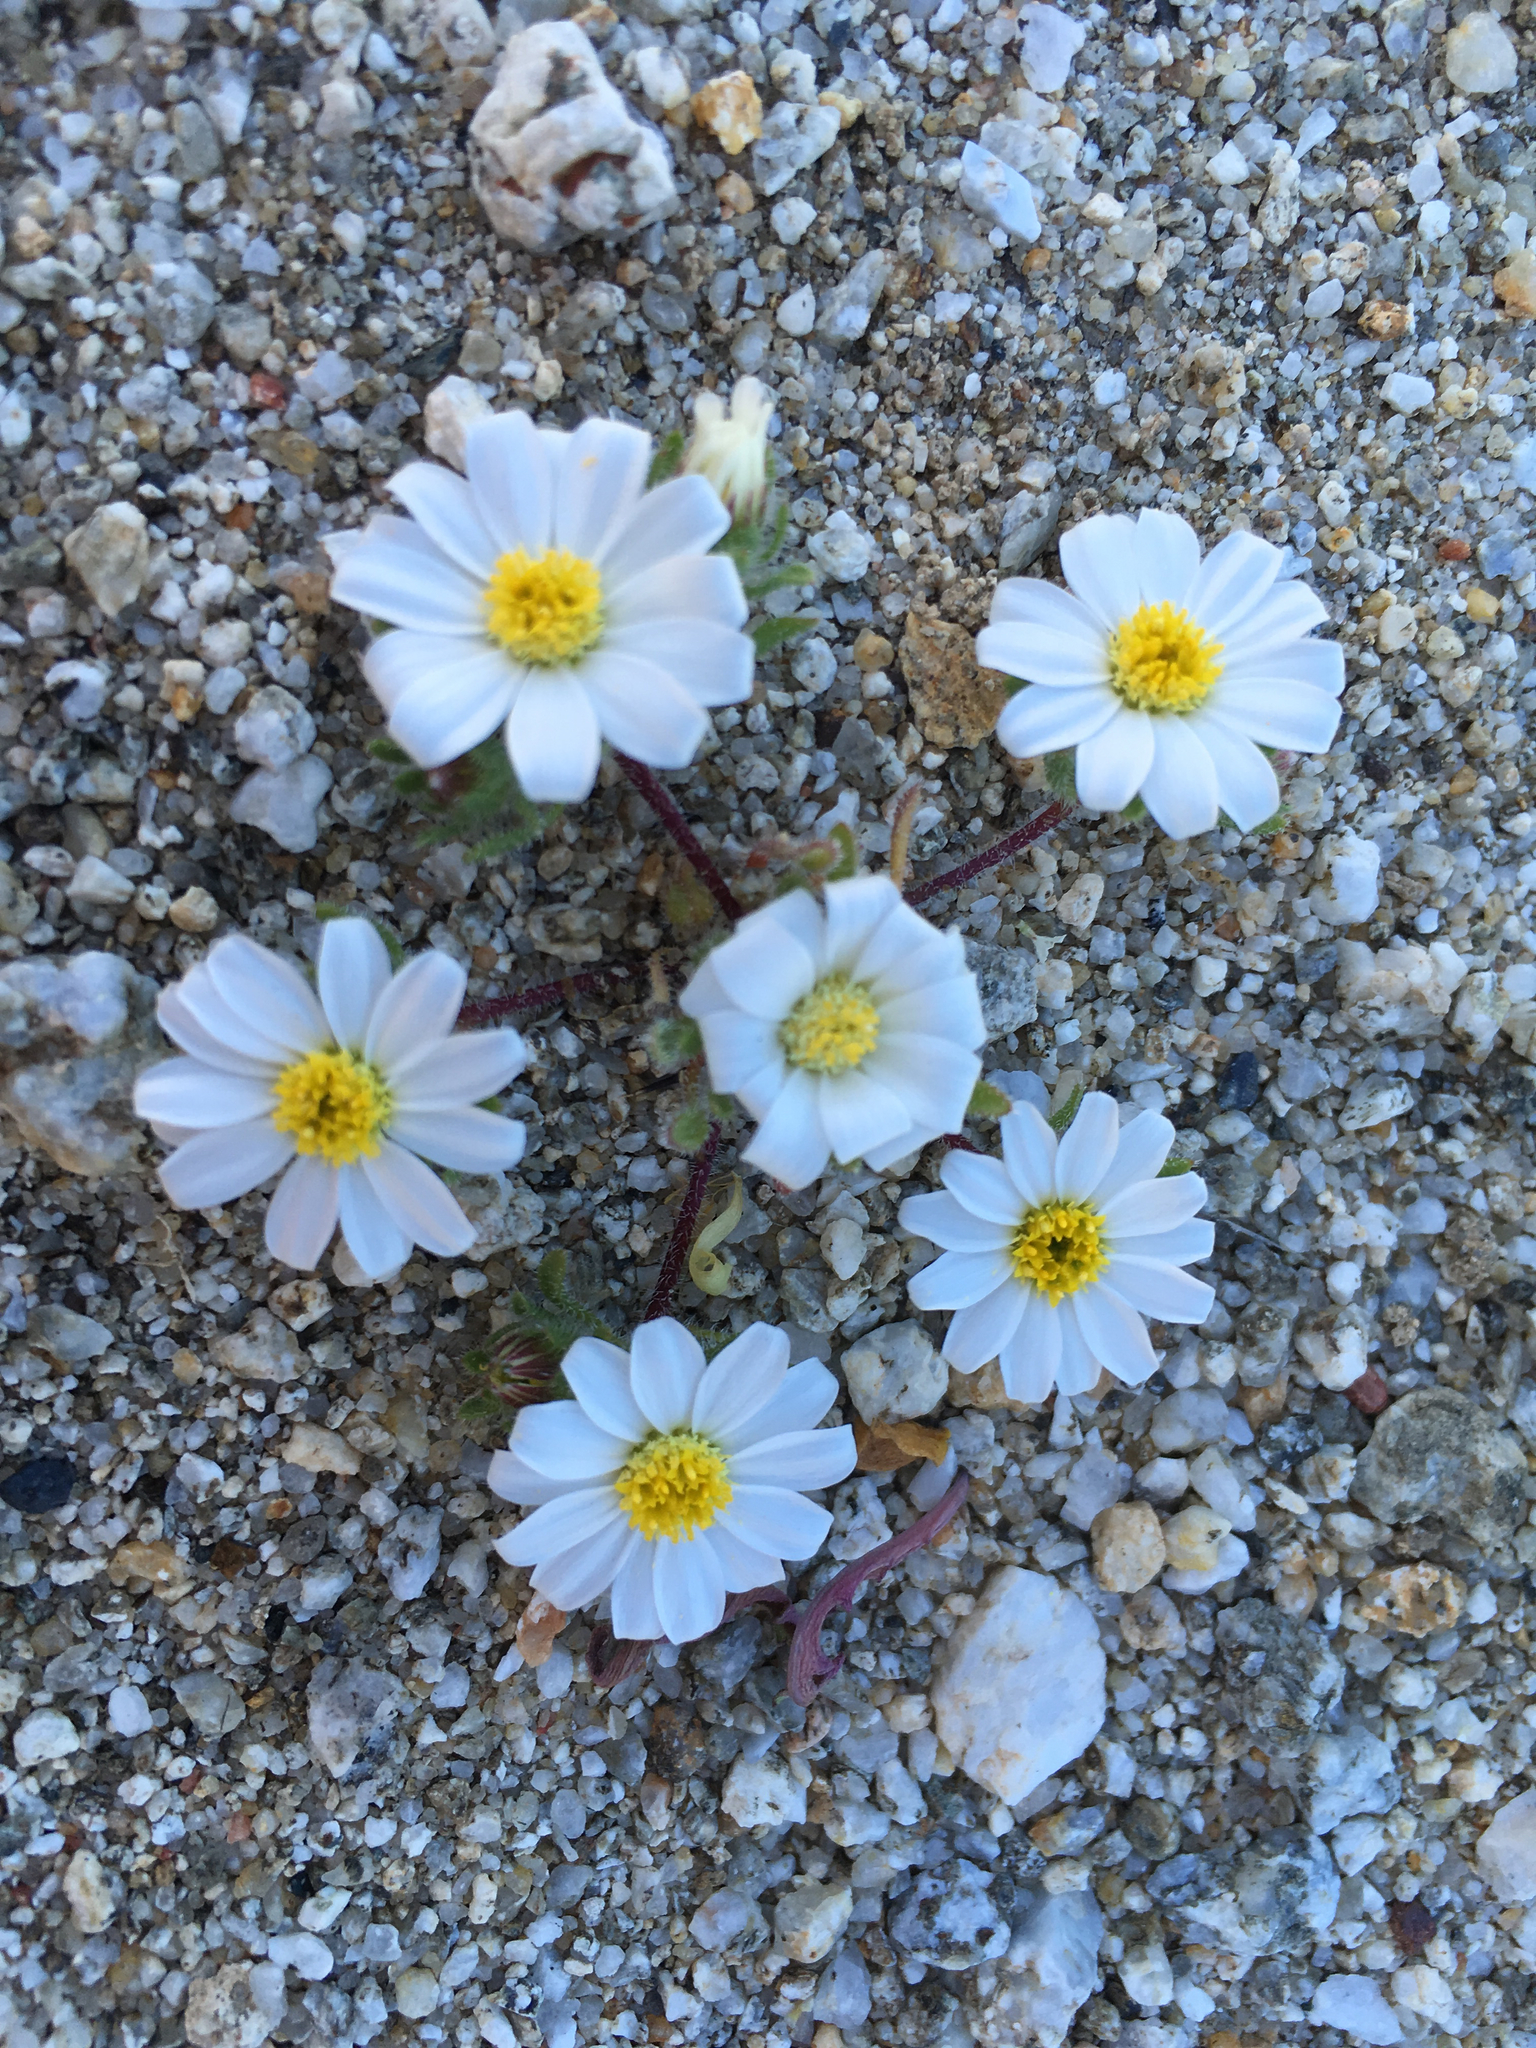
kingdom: Plantae
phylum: Tracheophyta
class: Magnoliopsida
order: Asterales
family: Asteraceae
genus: Monoptilon
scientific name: Monoptilon bellioides
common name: Bristly desertstar
